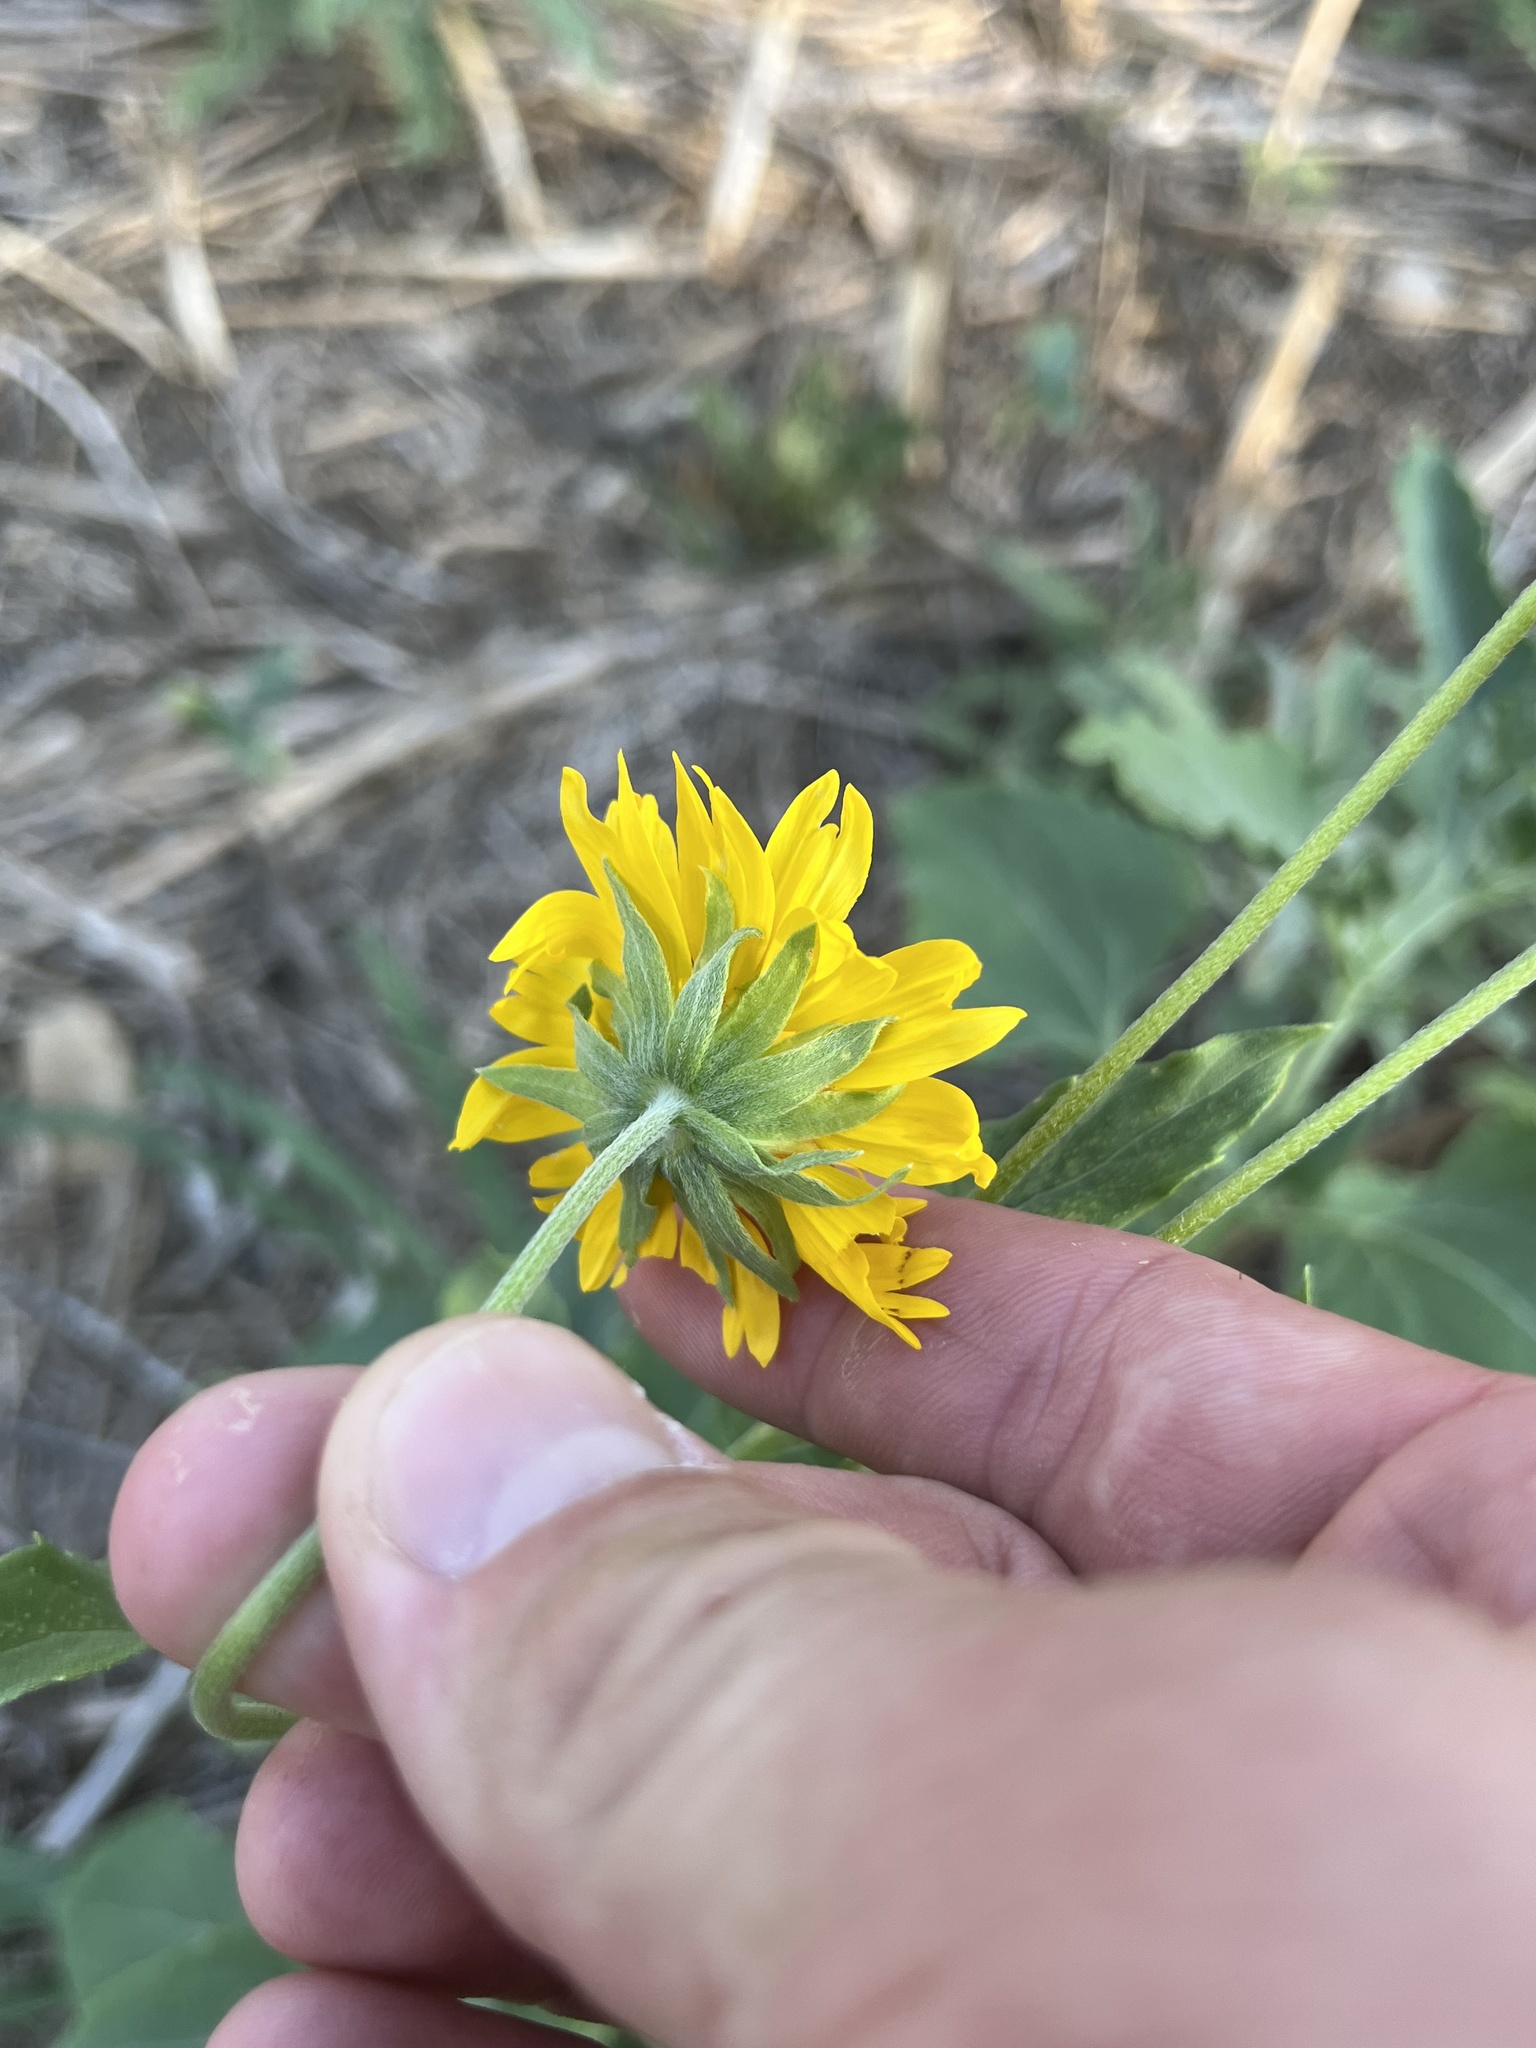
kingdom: Plantae
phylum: Tracheophyta
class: Magnoliopsida
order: Asterales
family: Asteraceae
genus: Verbesina
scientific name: Verbesina encelioides
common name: Golden crownbeard
